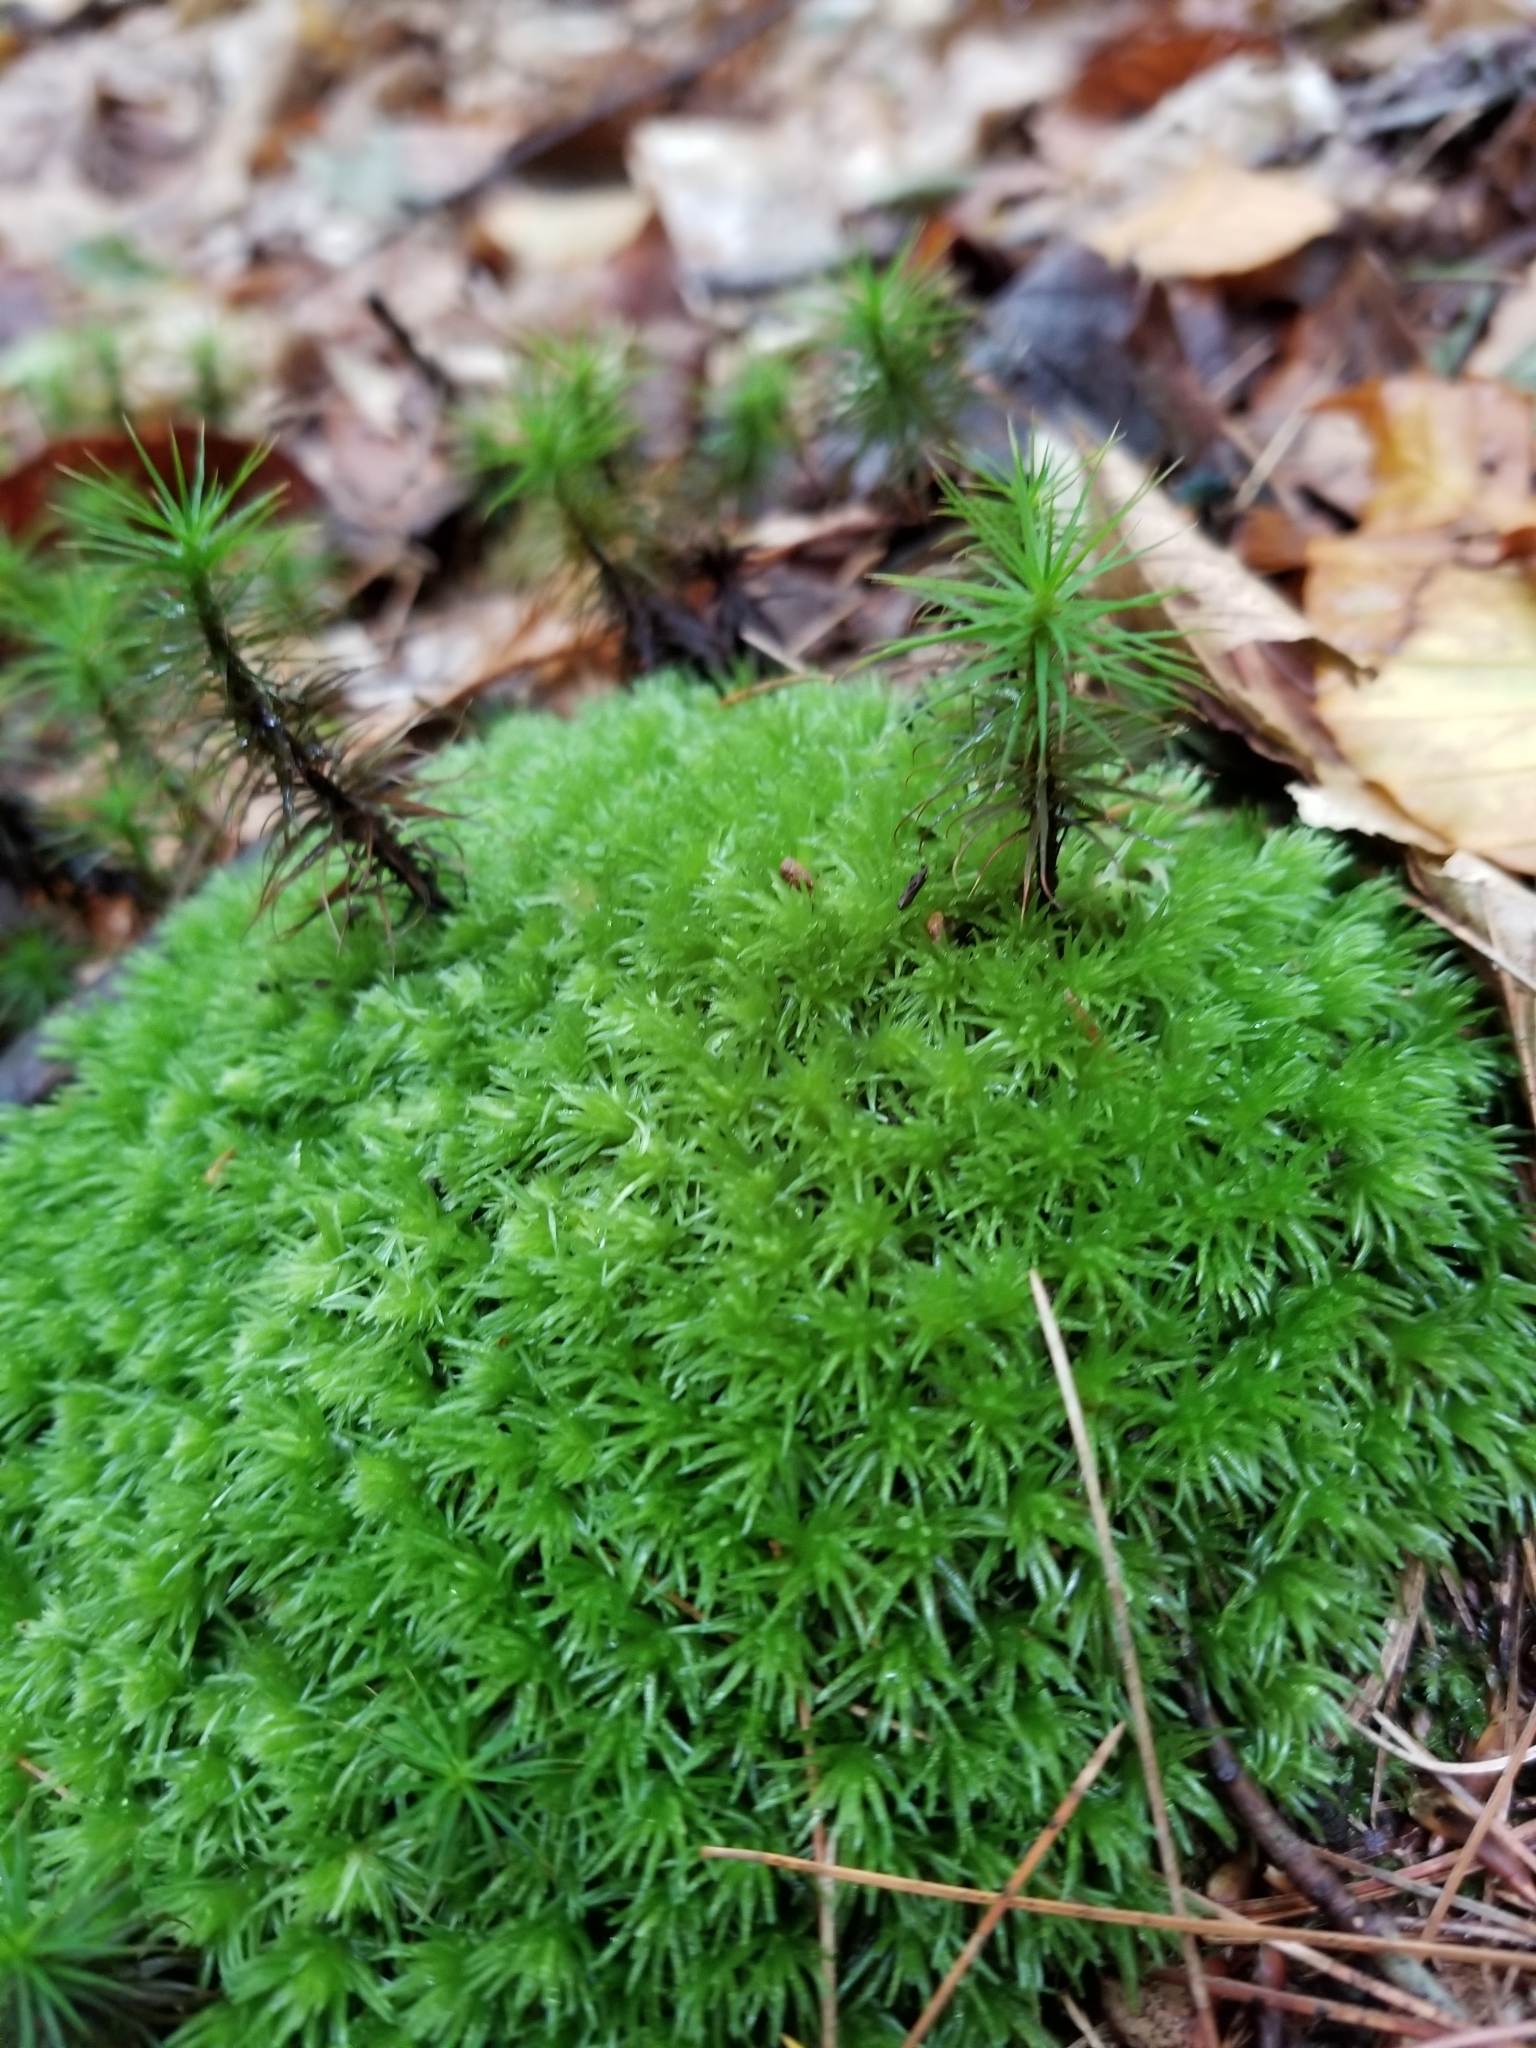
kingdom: Plantae
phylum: Bryophyta
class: Bryopsida
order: Dicranales
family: Leucobryaceae
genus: Leucobryum
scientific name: Leucobryum glaucum
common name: Large white-moss
